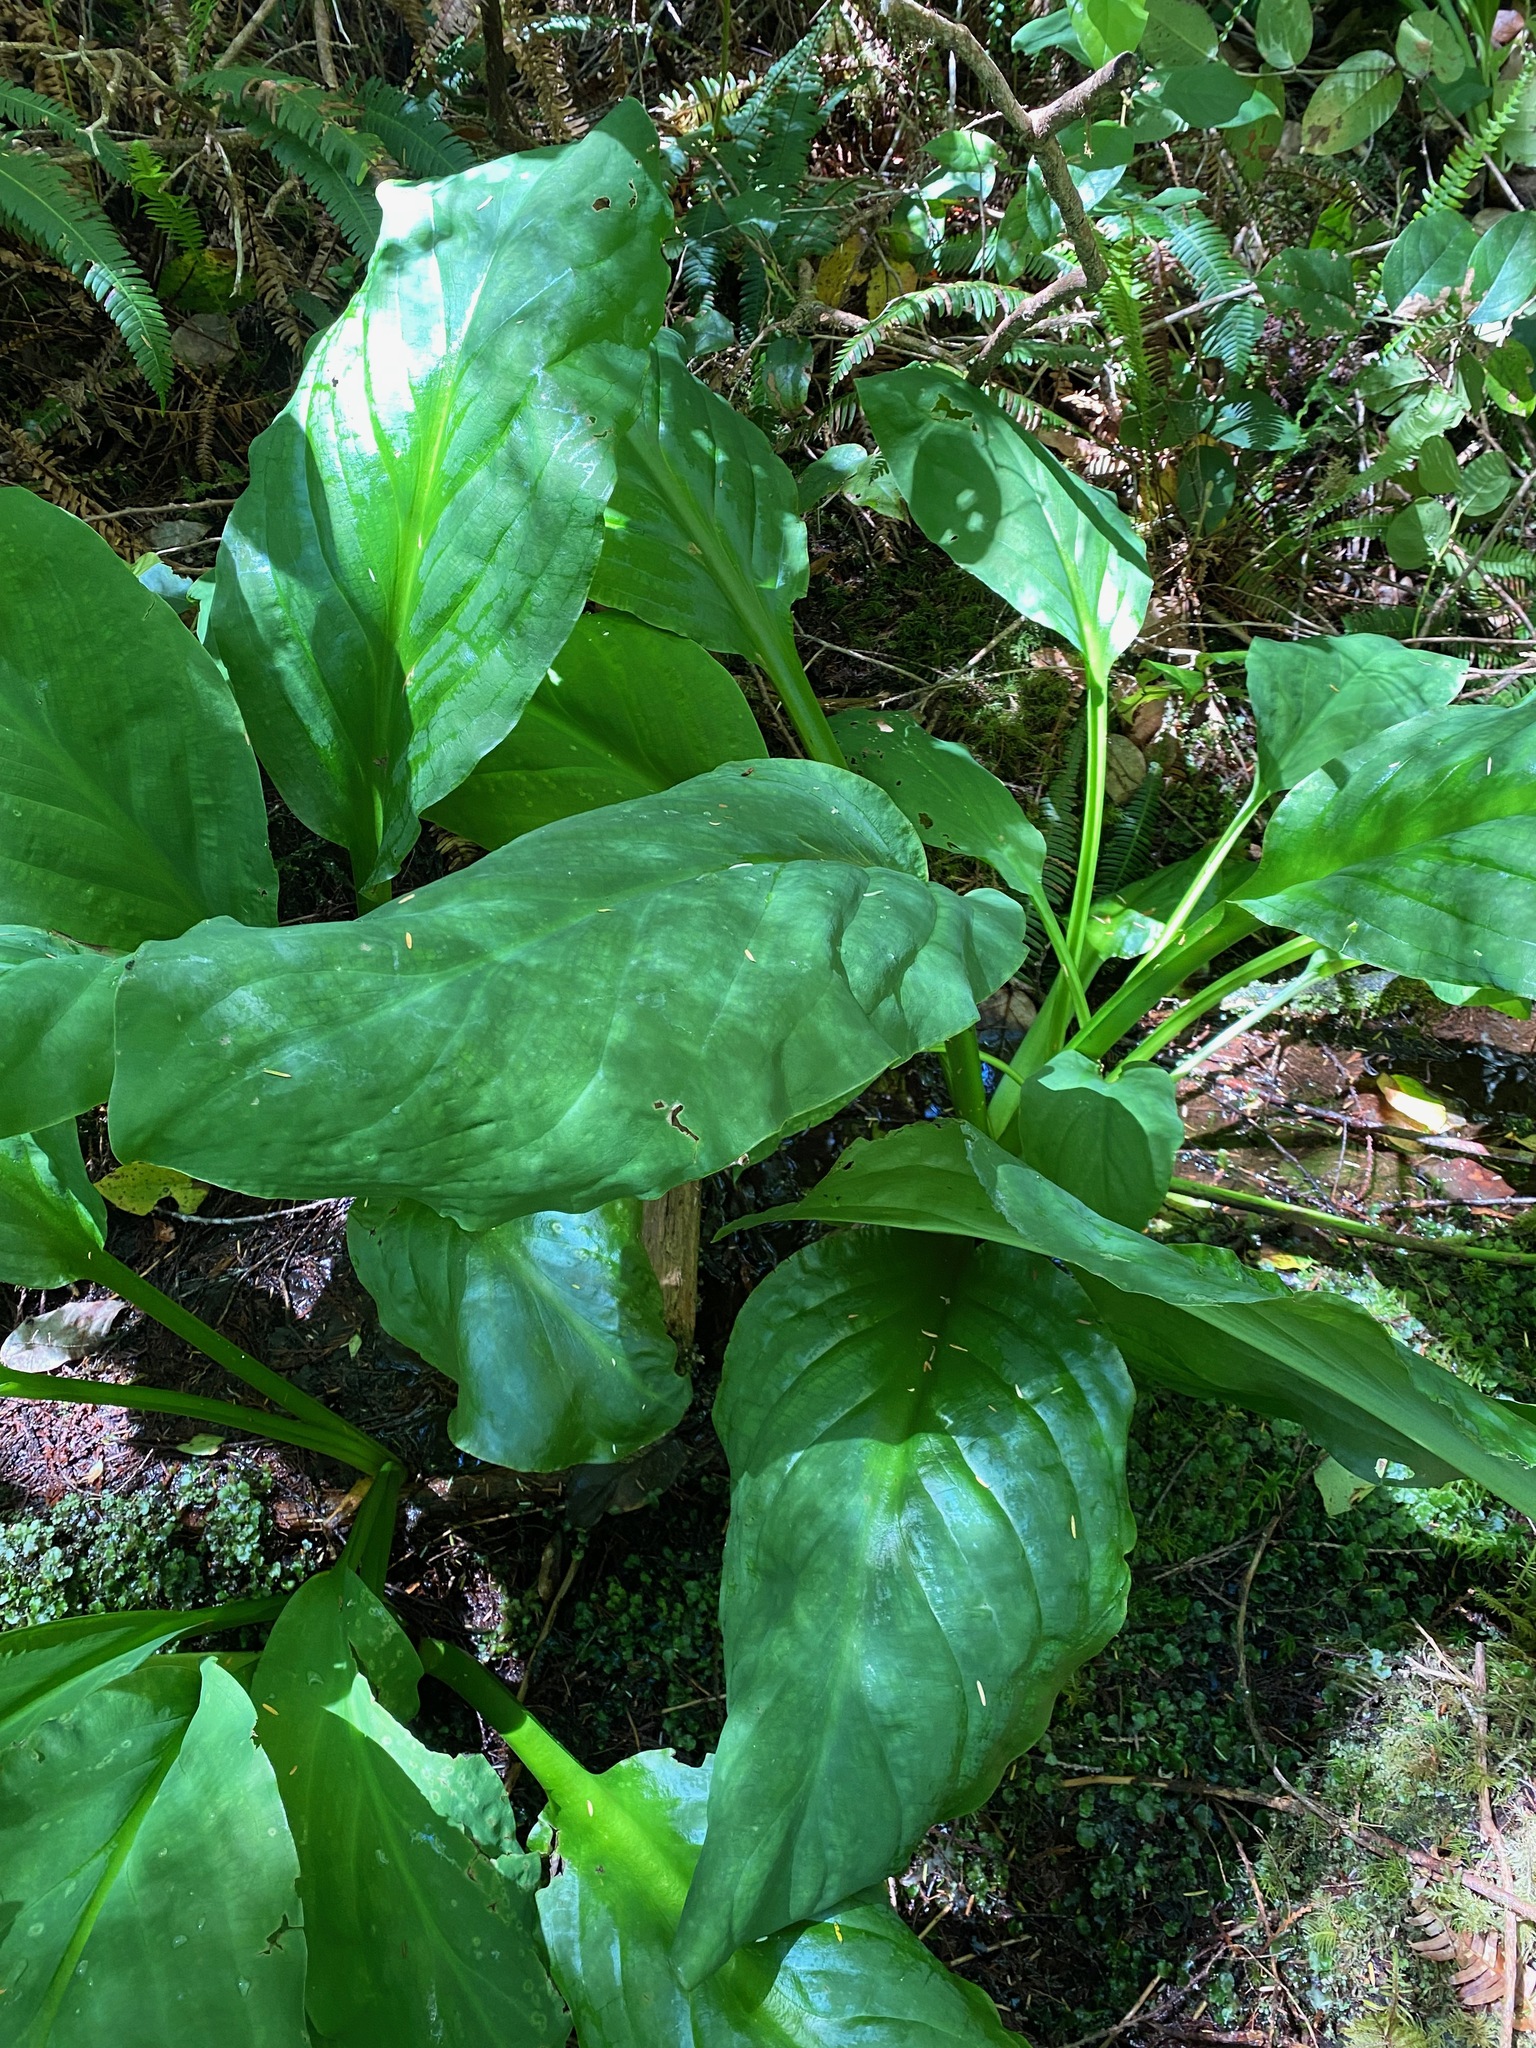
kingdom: Plantae
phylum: Tracheophyta
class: Liliopsida
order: Alismatales
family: Araceae
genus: Lysichiton
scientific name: Lysichiton americanus
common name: American skunk cabbage
